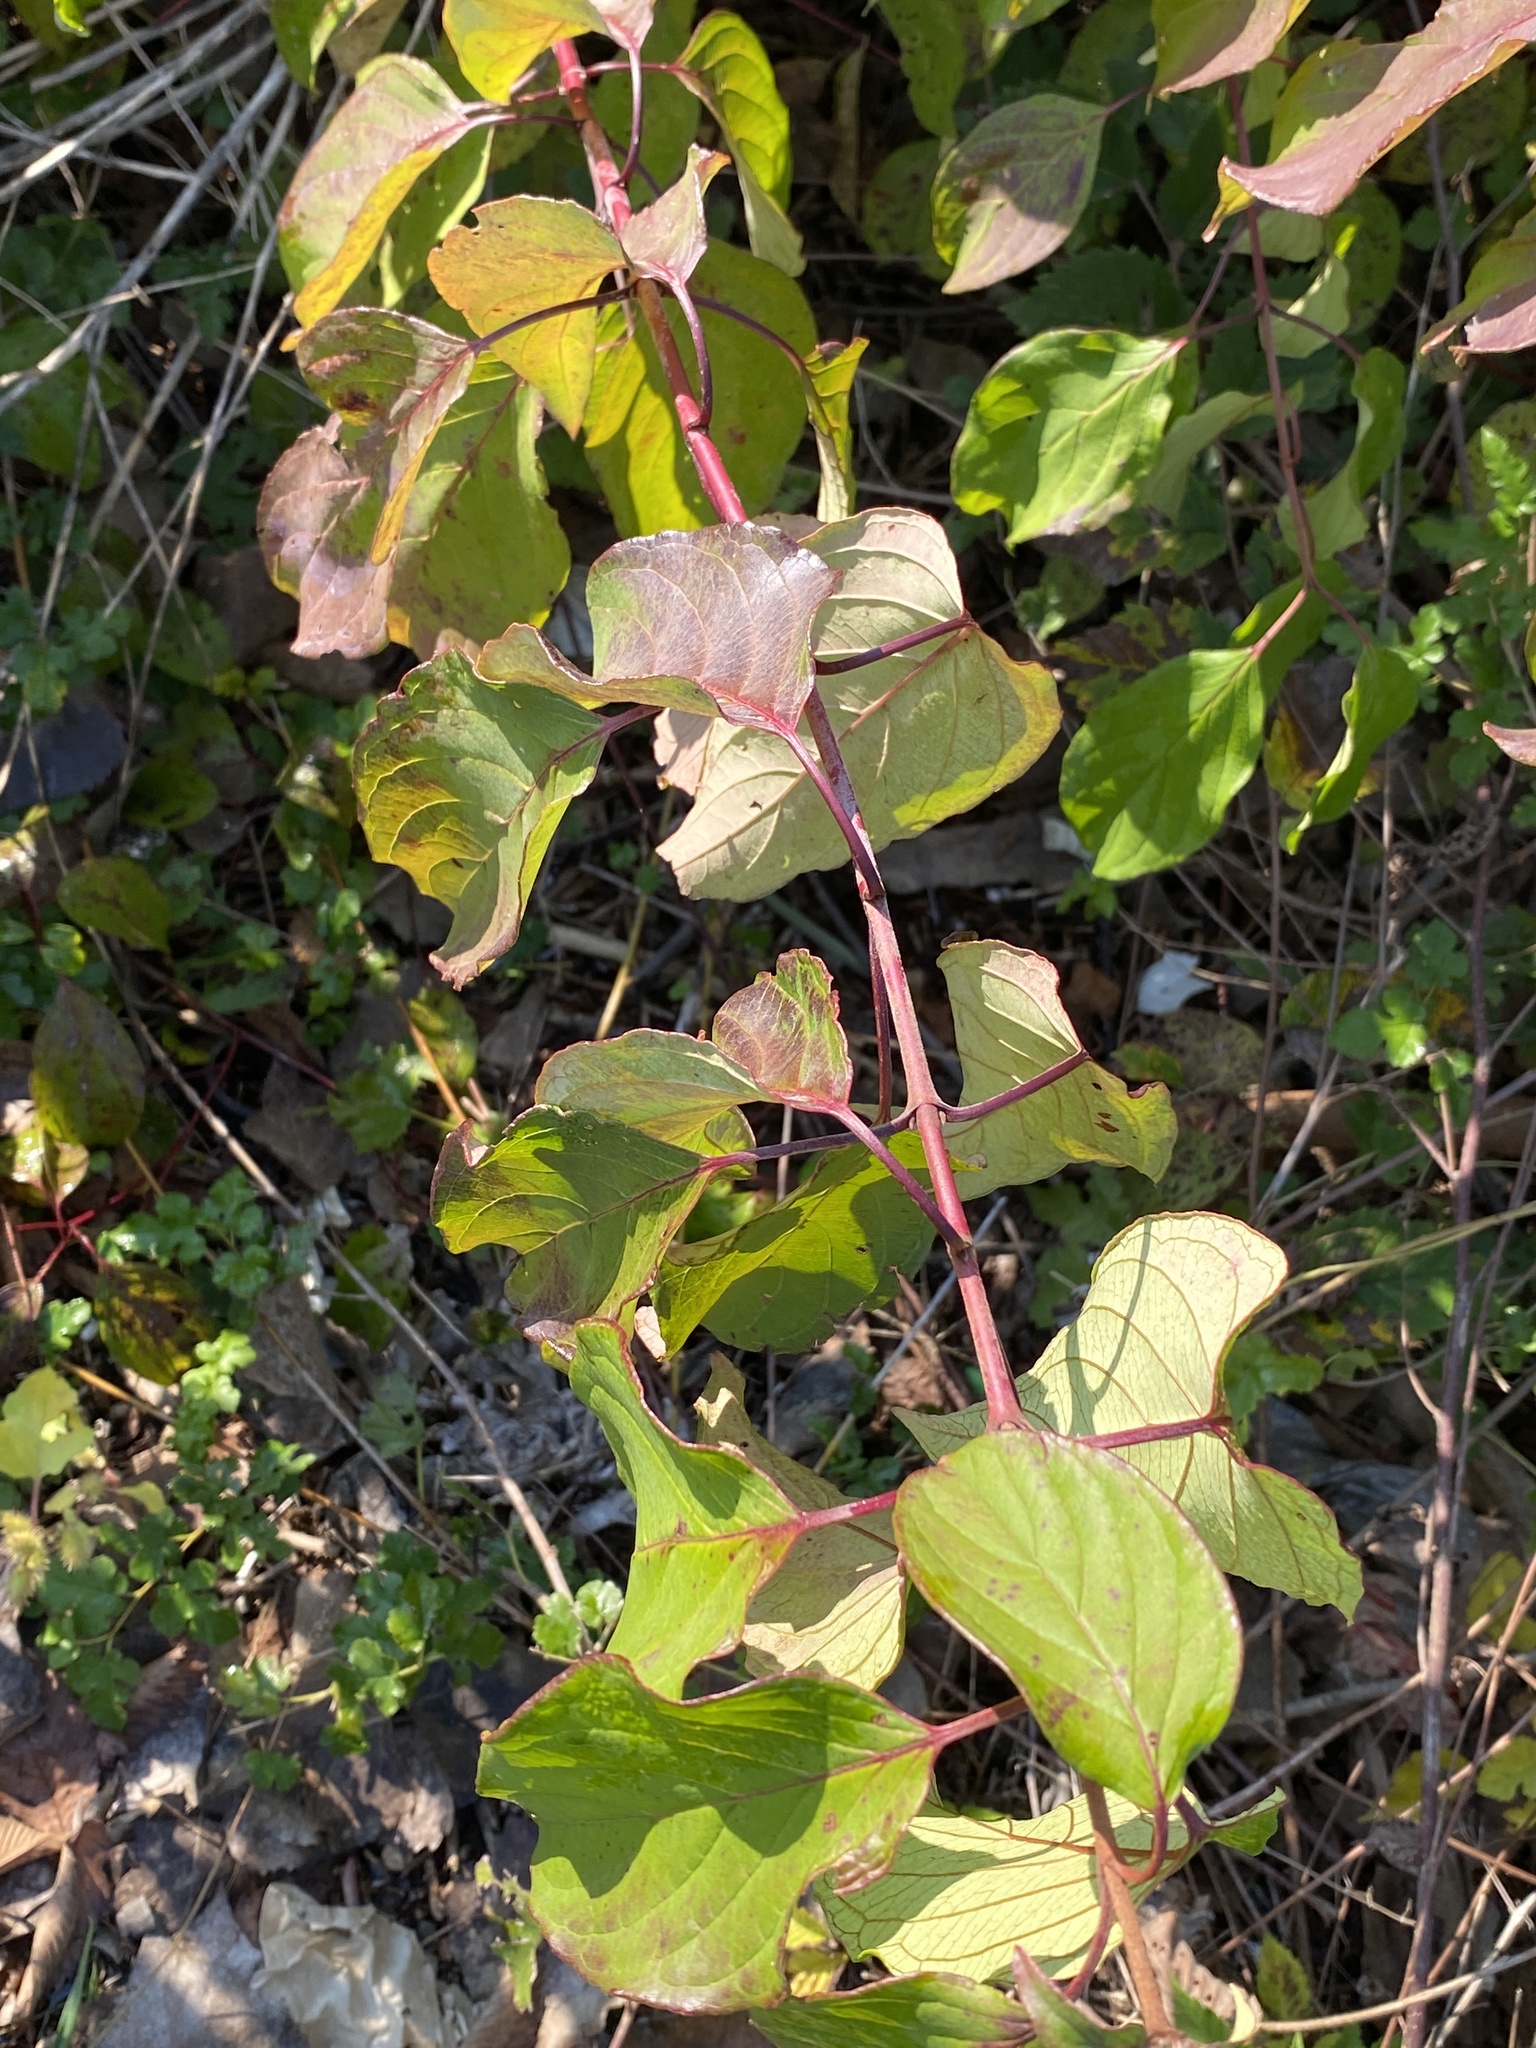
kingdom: Plantae
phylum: Tracheophyta
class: Magnoliopsida
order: Cornales
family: Cornaceae
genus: Cornus
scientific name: Cornus amomum
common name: Silky dogwood
